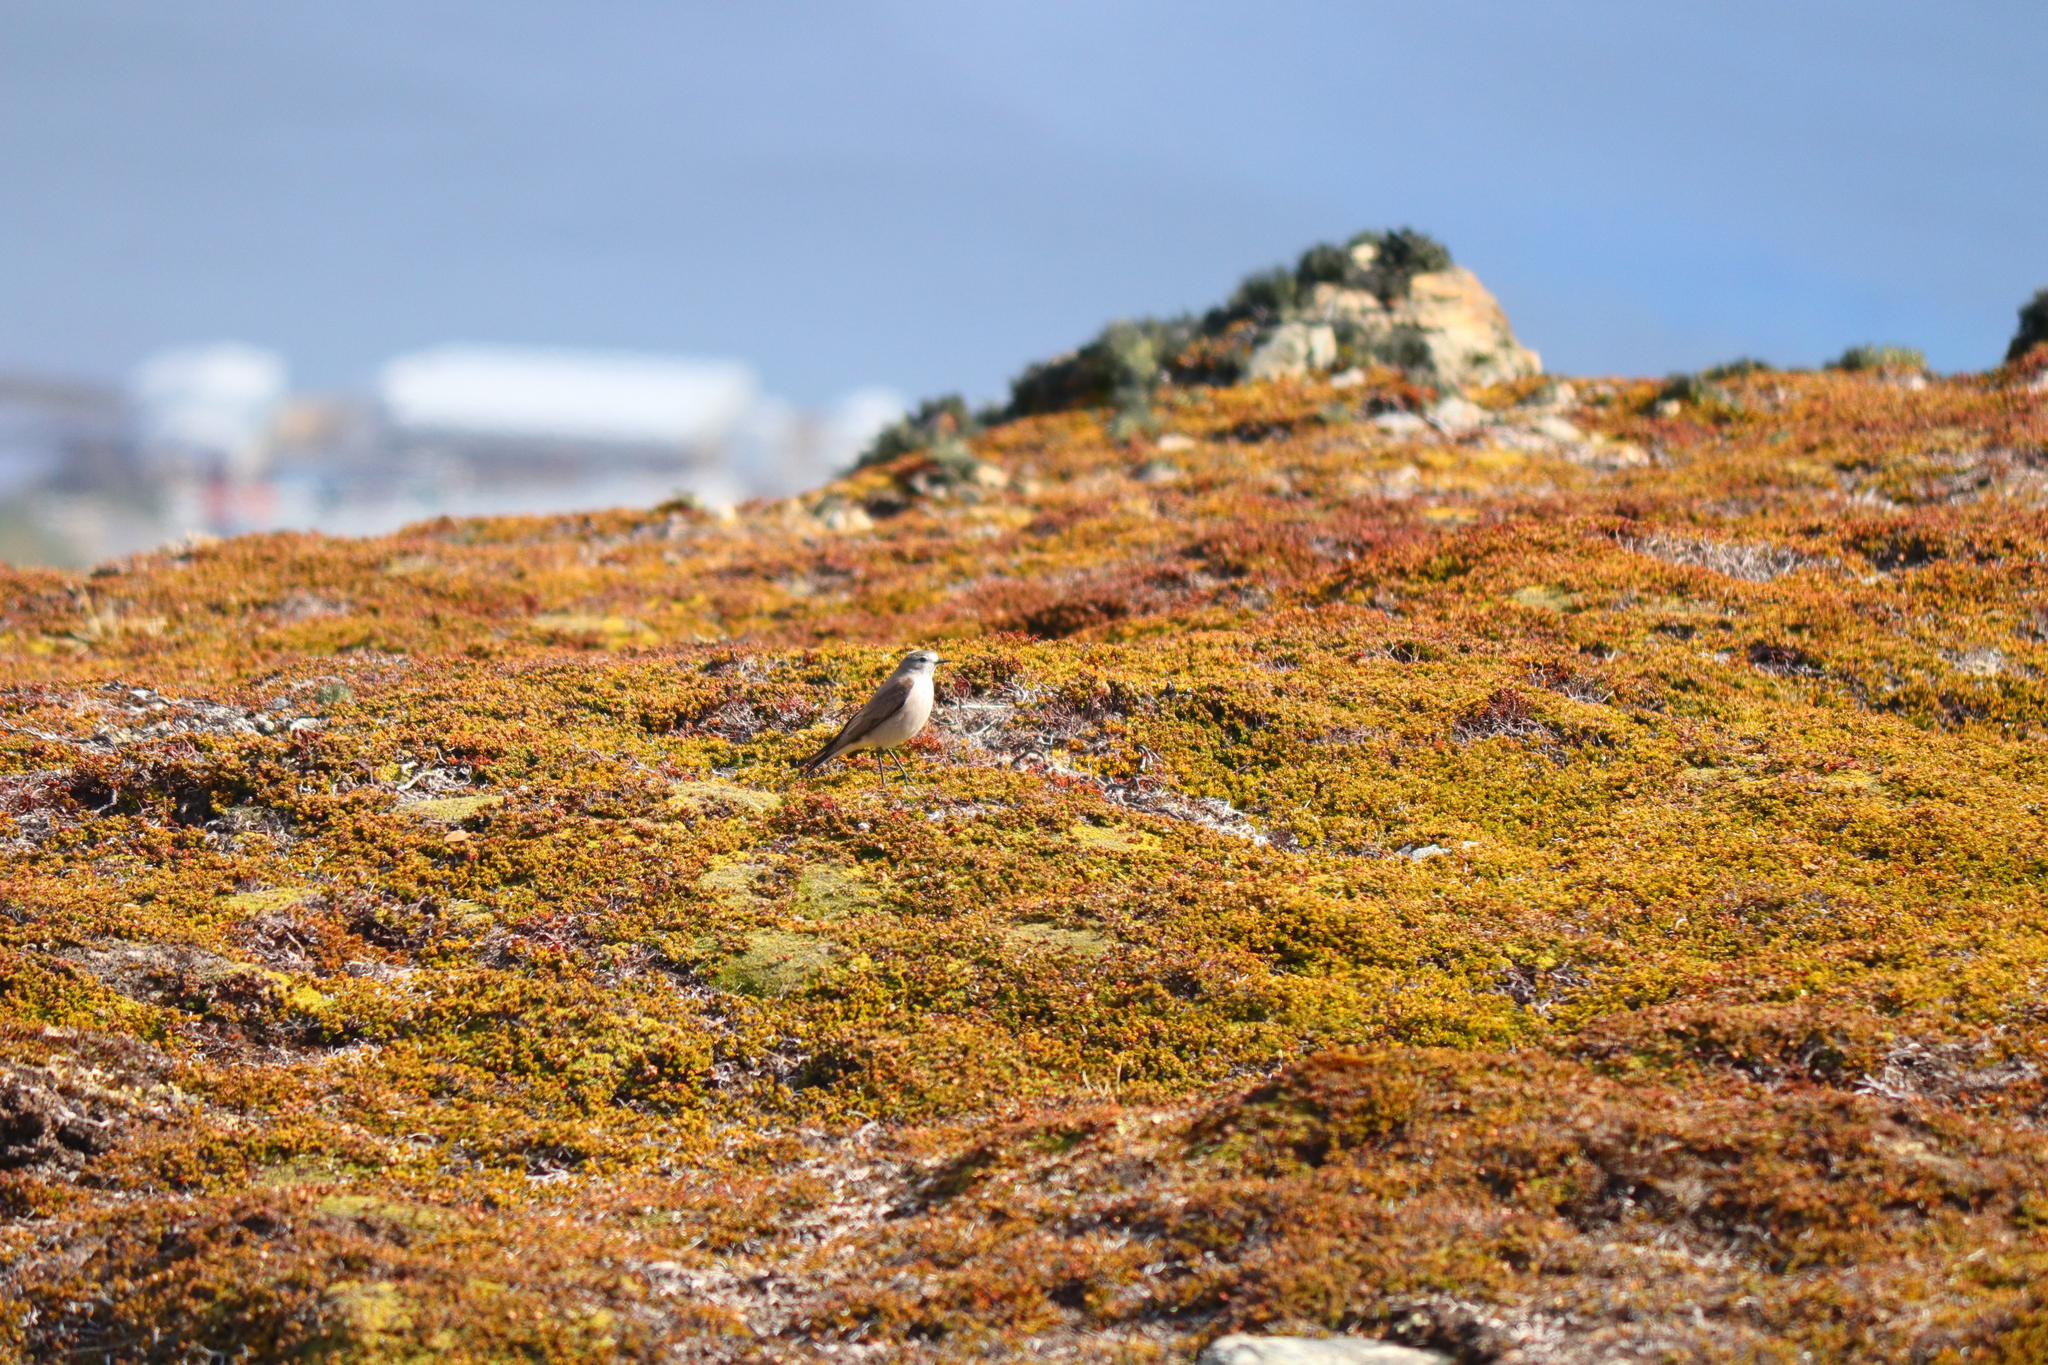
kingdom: Animalia
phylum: Chordata
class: Aves
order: Passeriformes
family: Tyrannidae
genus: Muscisaxicola
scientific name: Muscisaxicola flavinucha
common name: Ochre-naped ground tyrant
